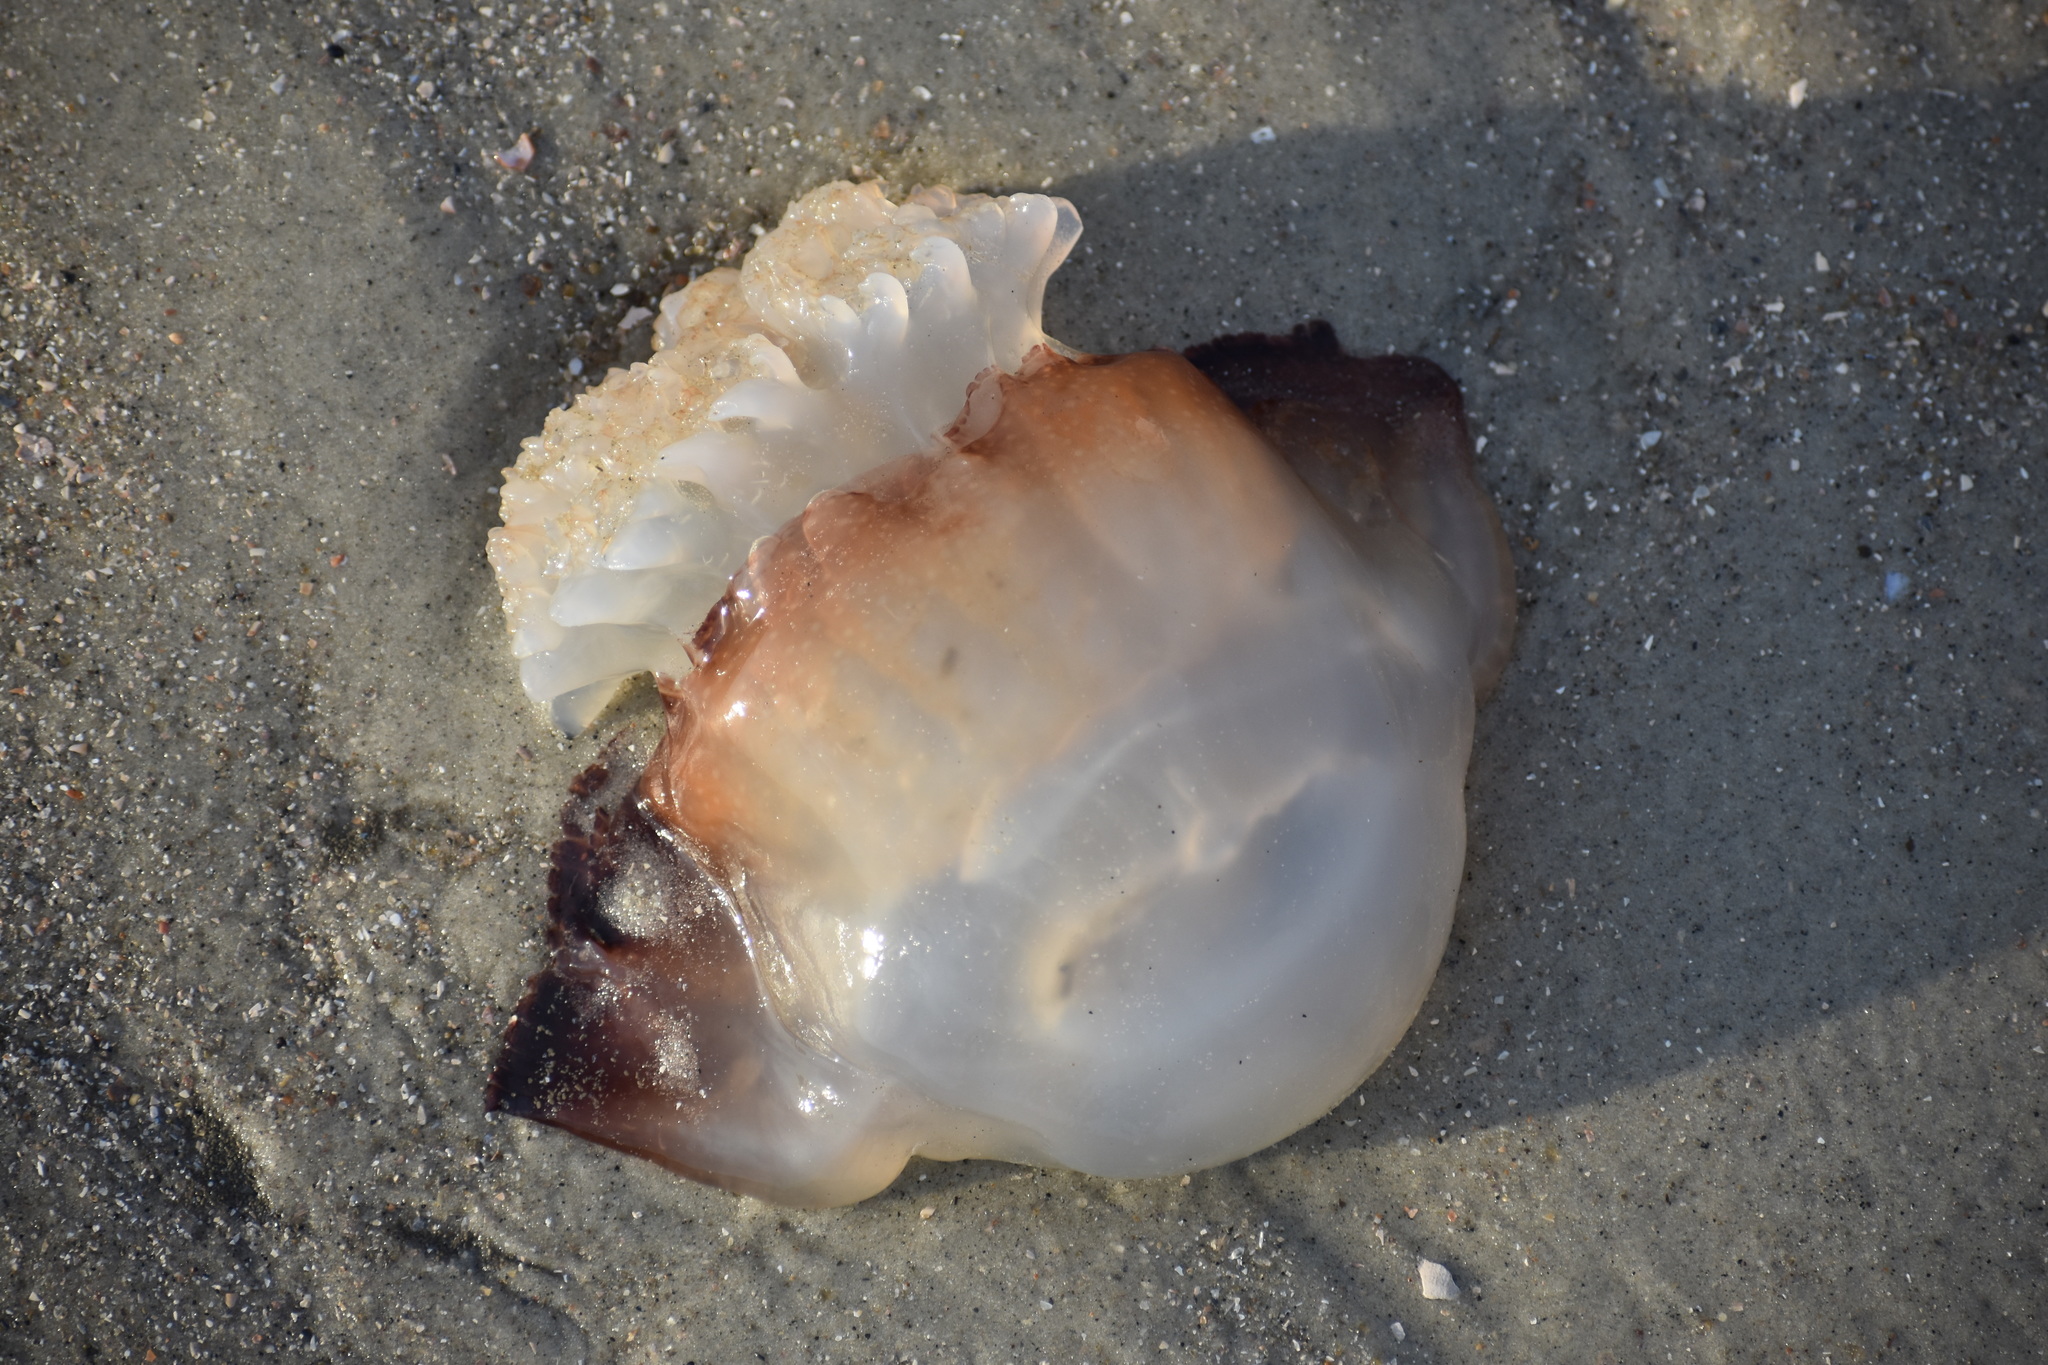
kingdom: Animalia
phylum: Cnidaria
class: Scyphozoa
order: Rhizostomeae
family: Stomolophidae
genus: Stomolophus
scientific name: Stomolophus meleagris
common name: Cabbagehead
